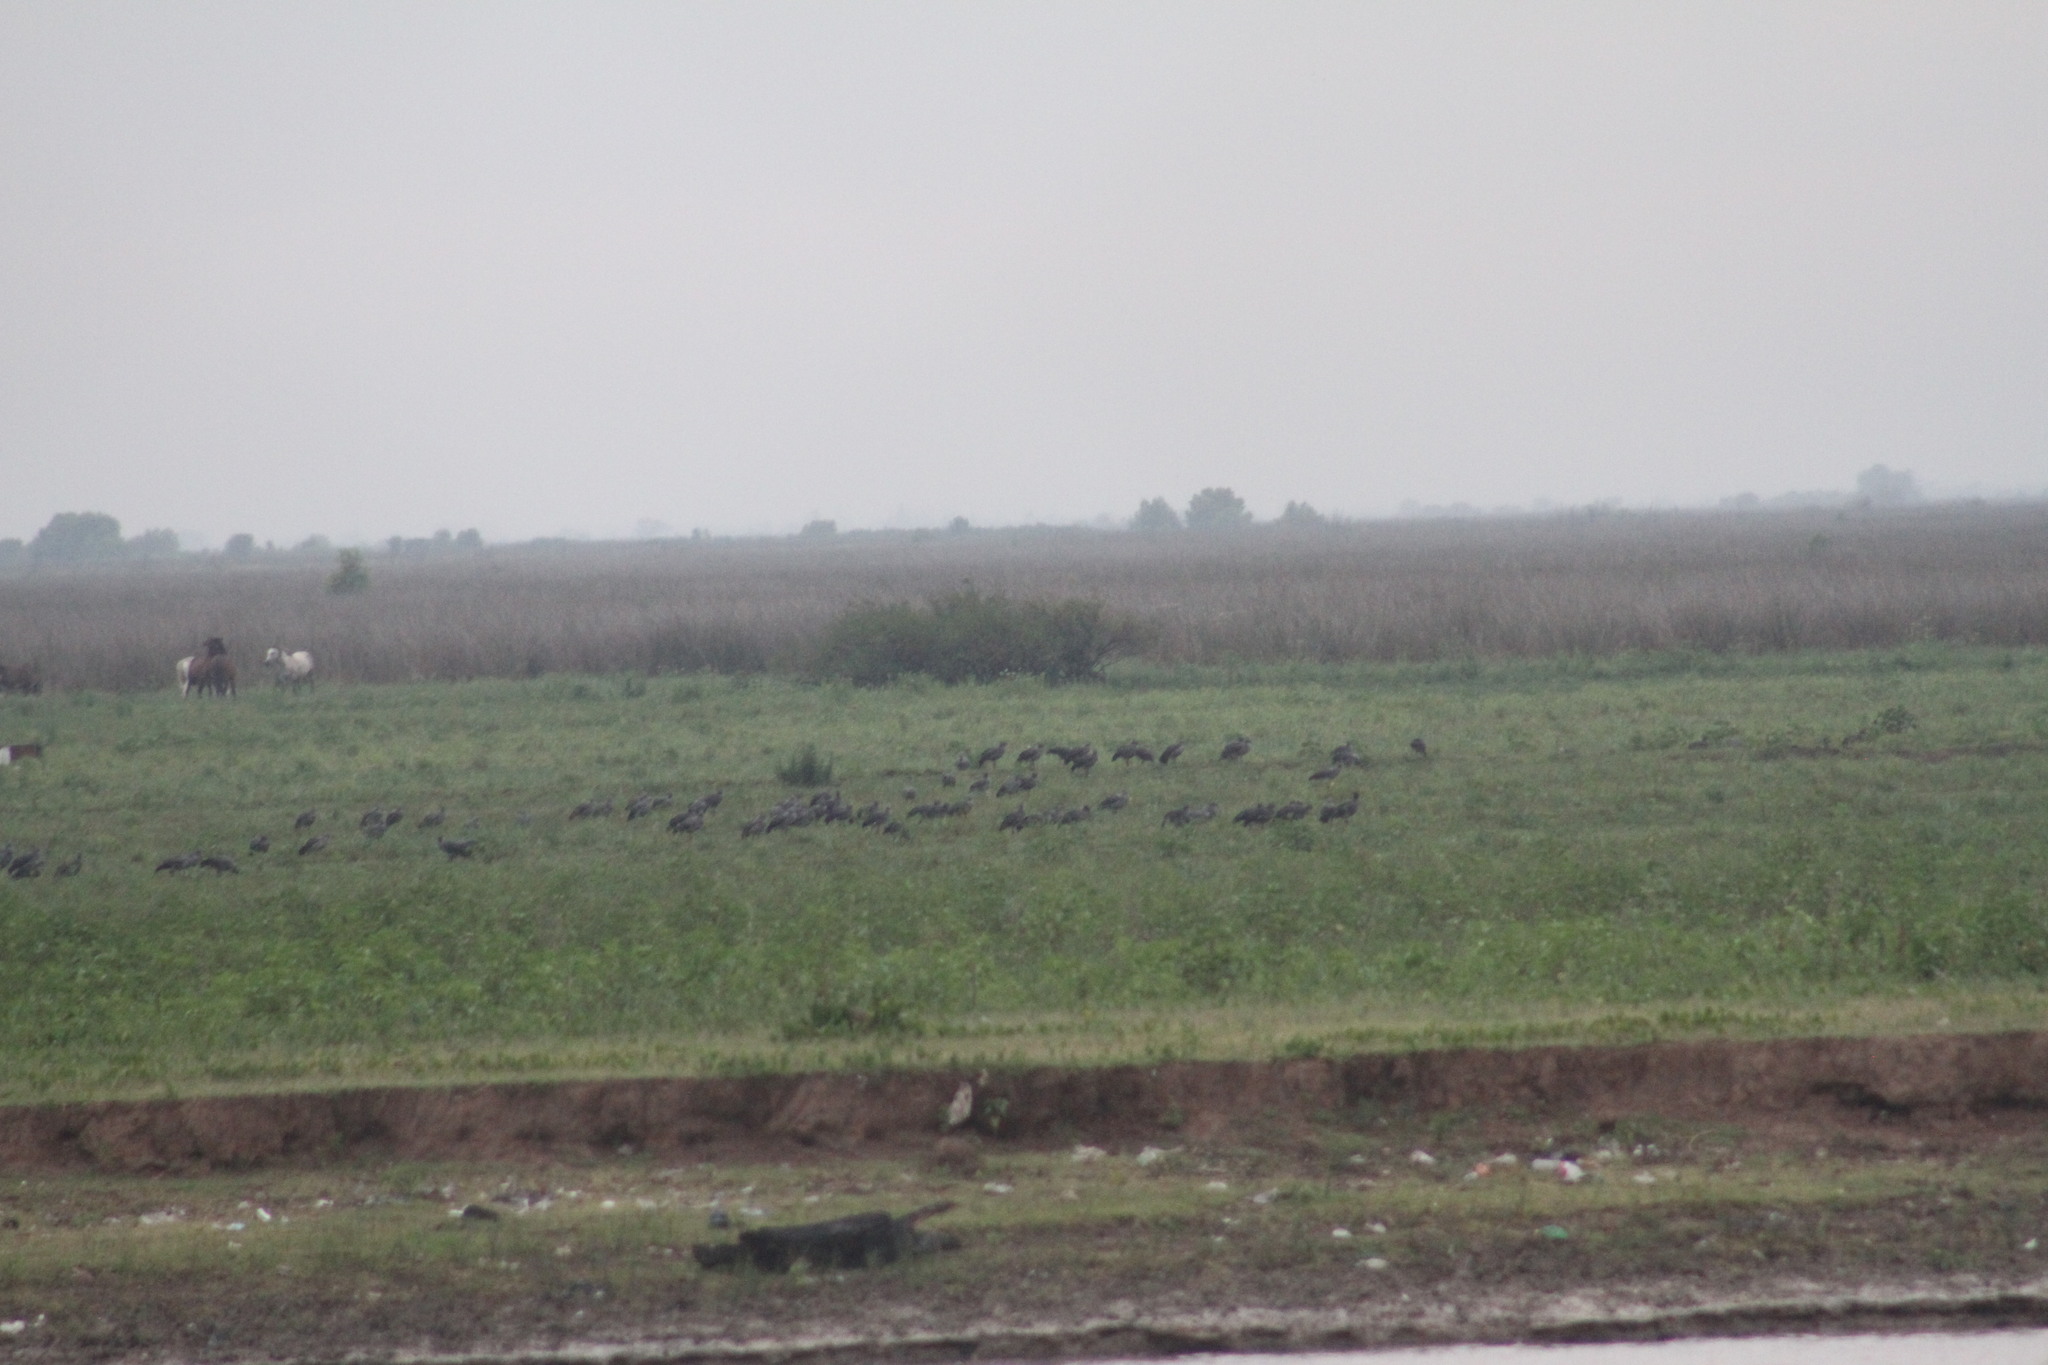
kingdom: Animalia
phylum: Chordata
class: Aves
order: Anseriformes
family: Anhimidae
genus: Chauna
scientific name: Chauna torquata
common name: Southern screamer
